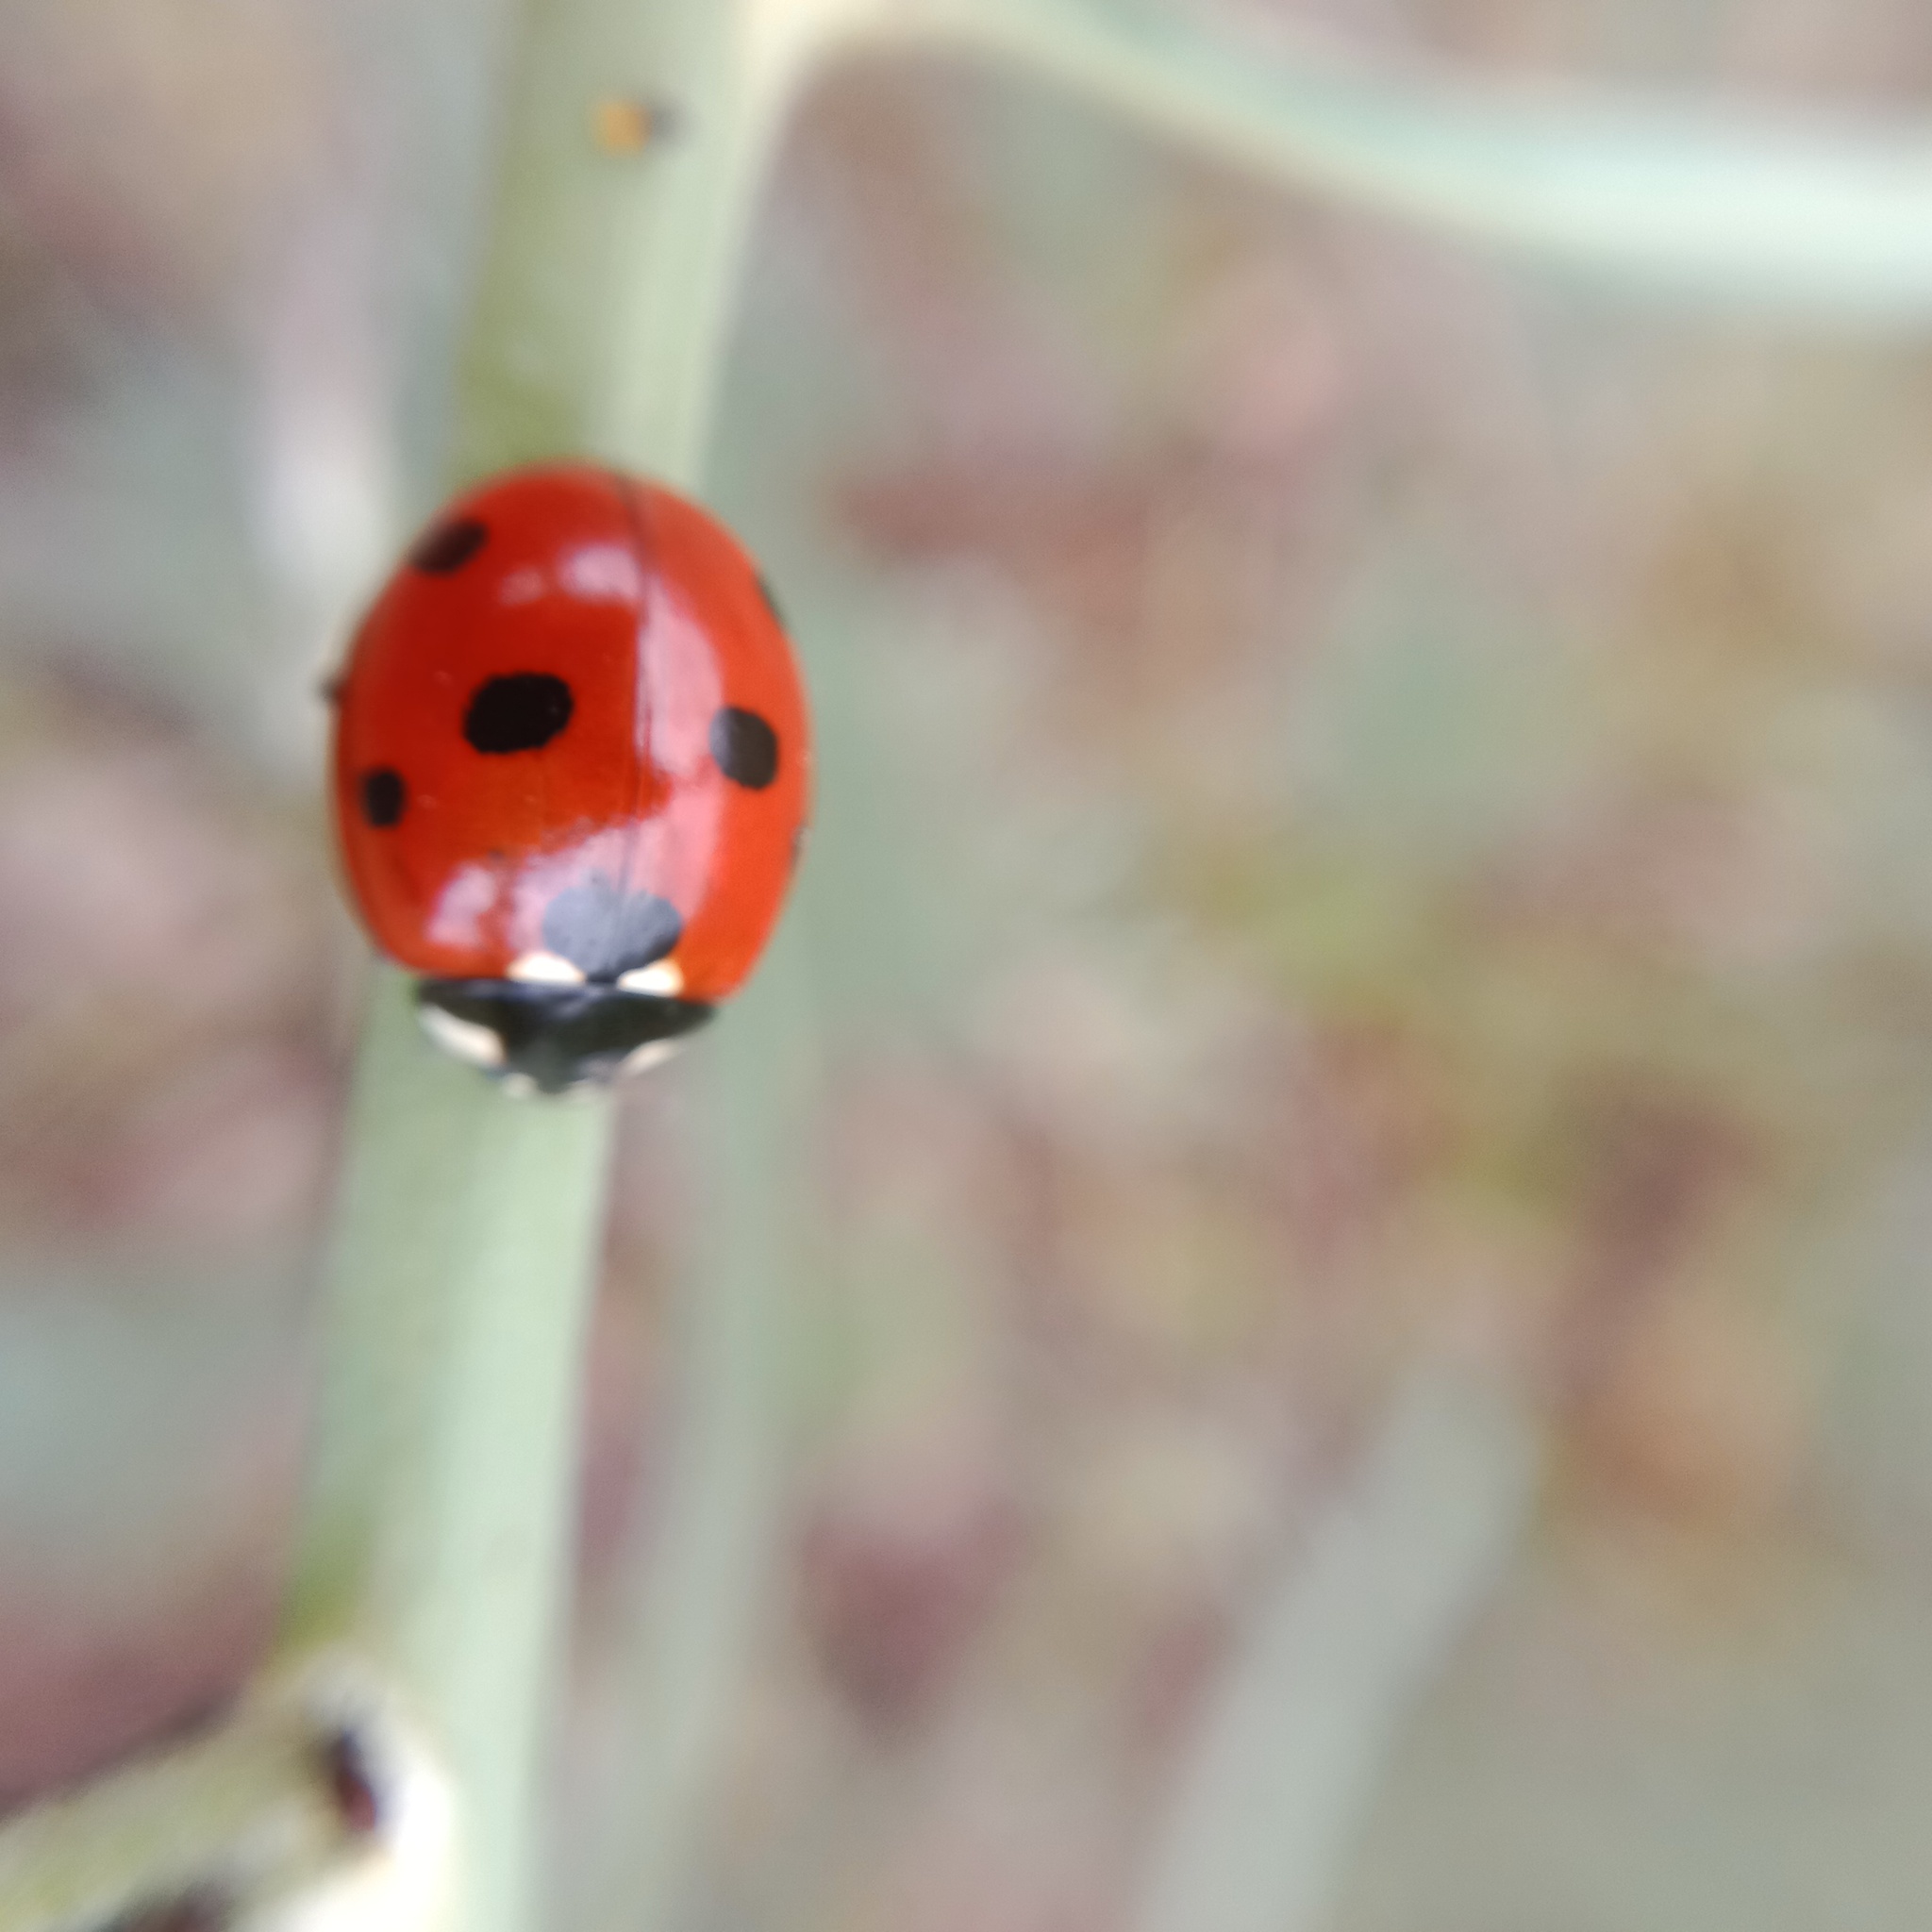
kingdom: Animalia
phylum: Arthropoda
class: Insecta
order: Coleoptera
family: Coccinellidae
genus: Coccinella
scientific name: Coccinella septempunctata
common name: Sevenspotted lady beetle
